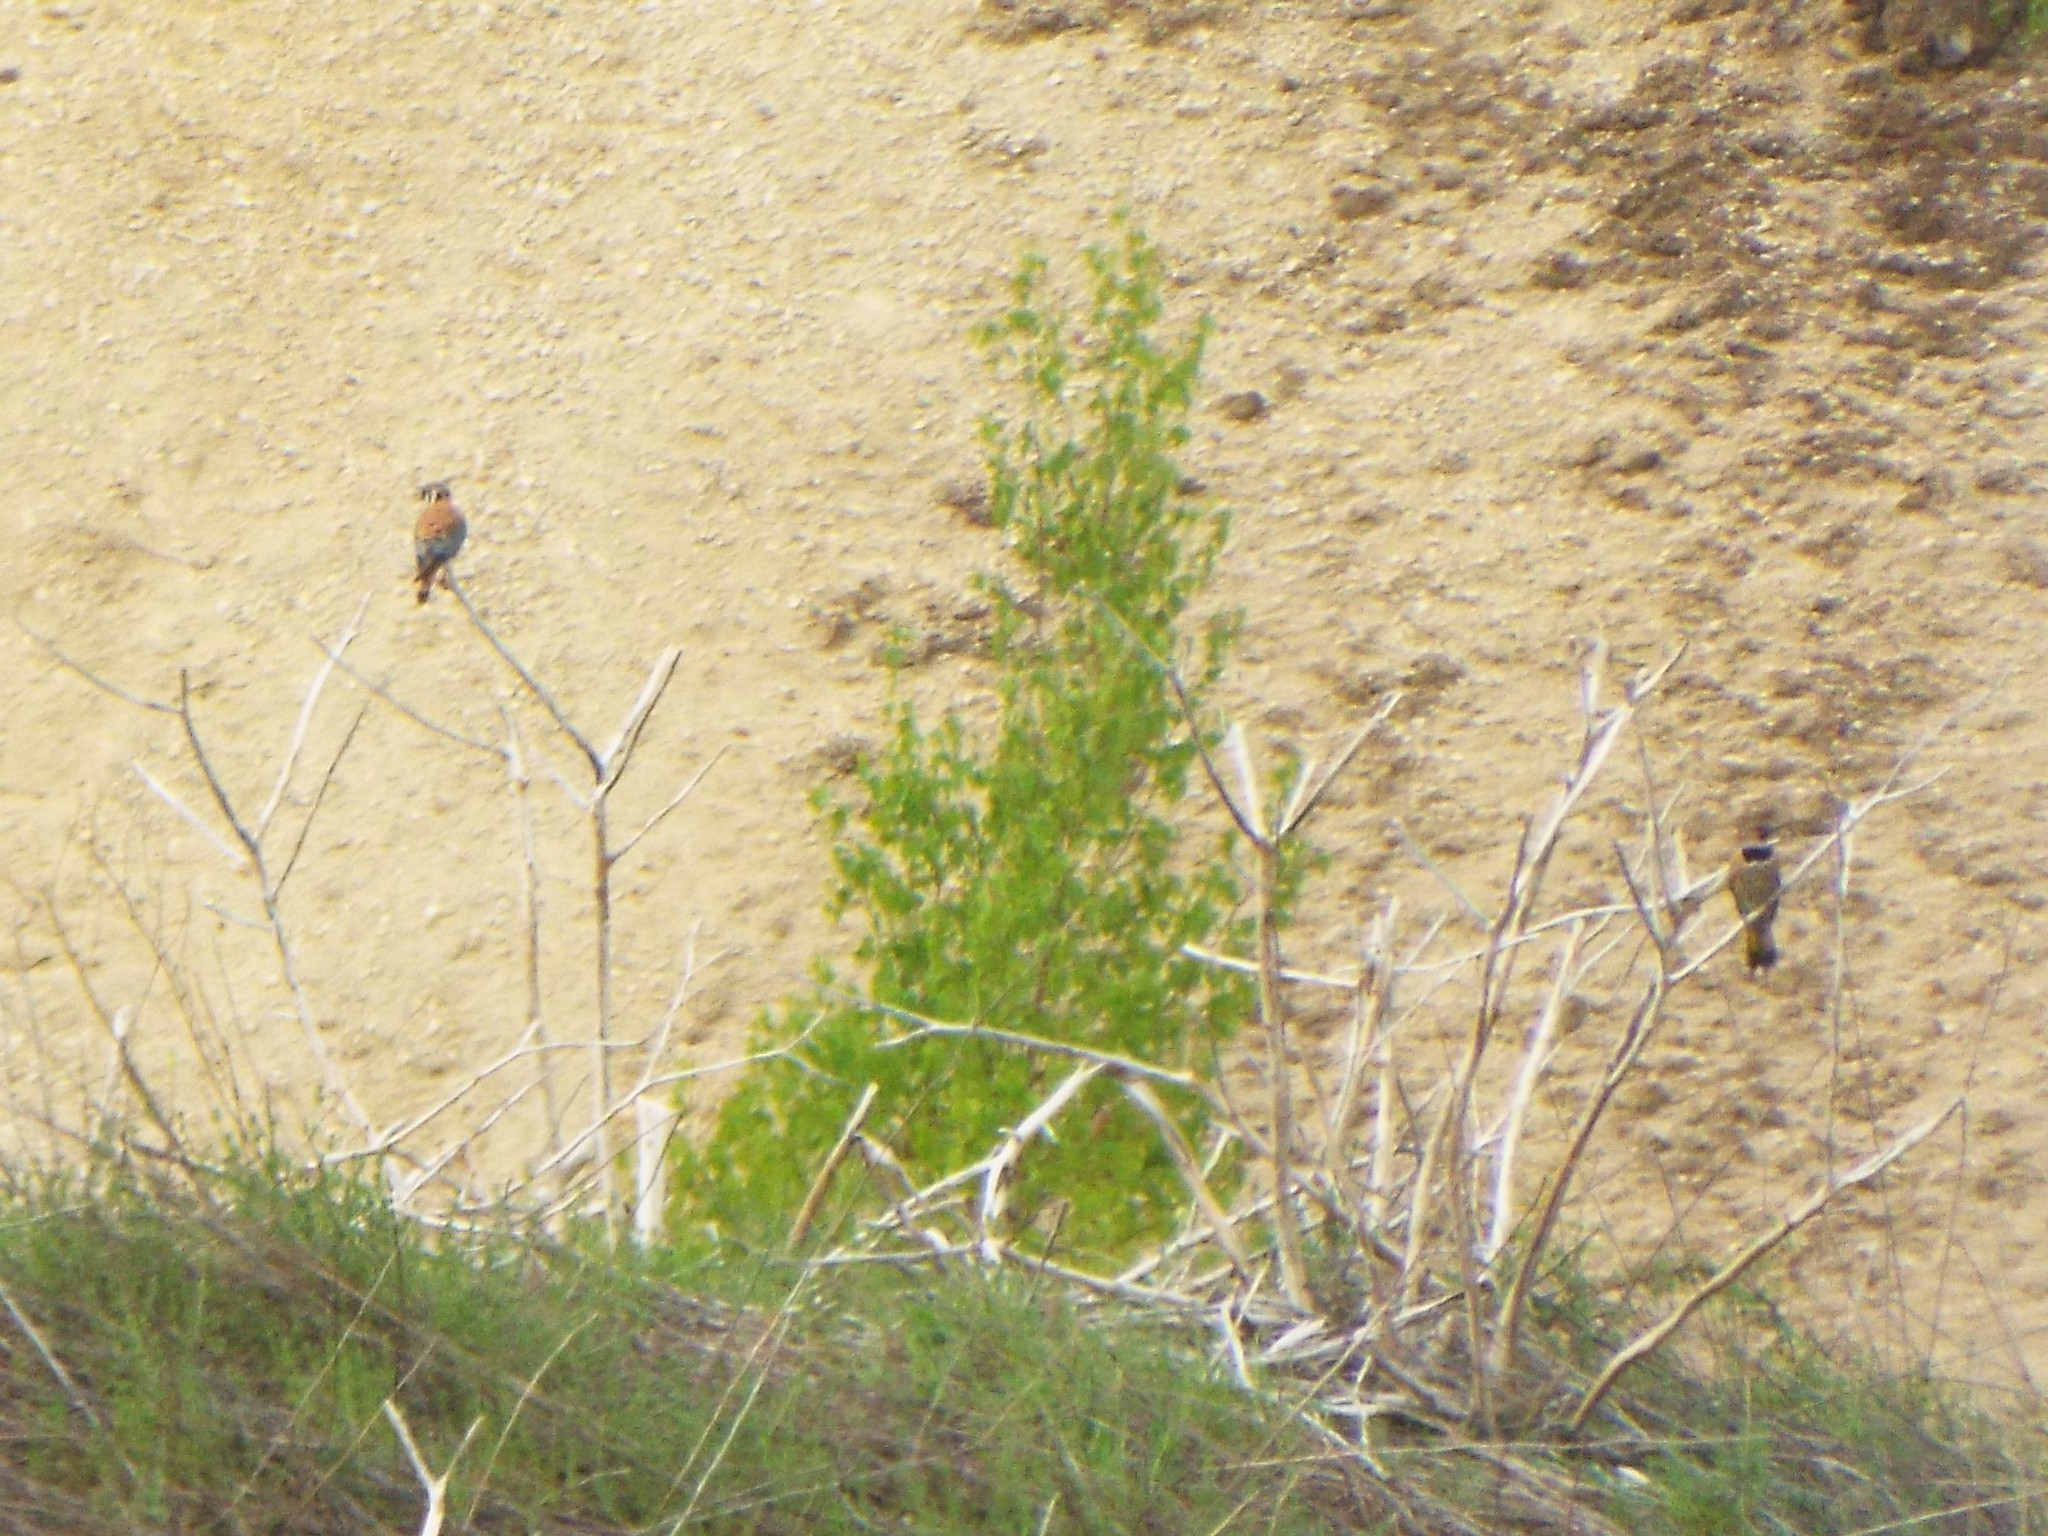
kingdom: Animalia
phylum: Chordata
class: Aves
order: Falconiformes
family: Falconidae
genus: Falco
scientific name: Falco sparverius
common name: American kestrel
